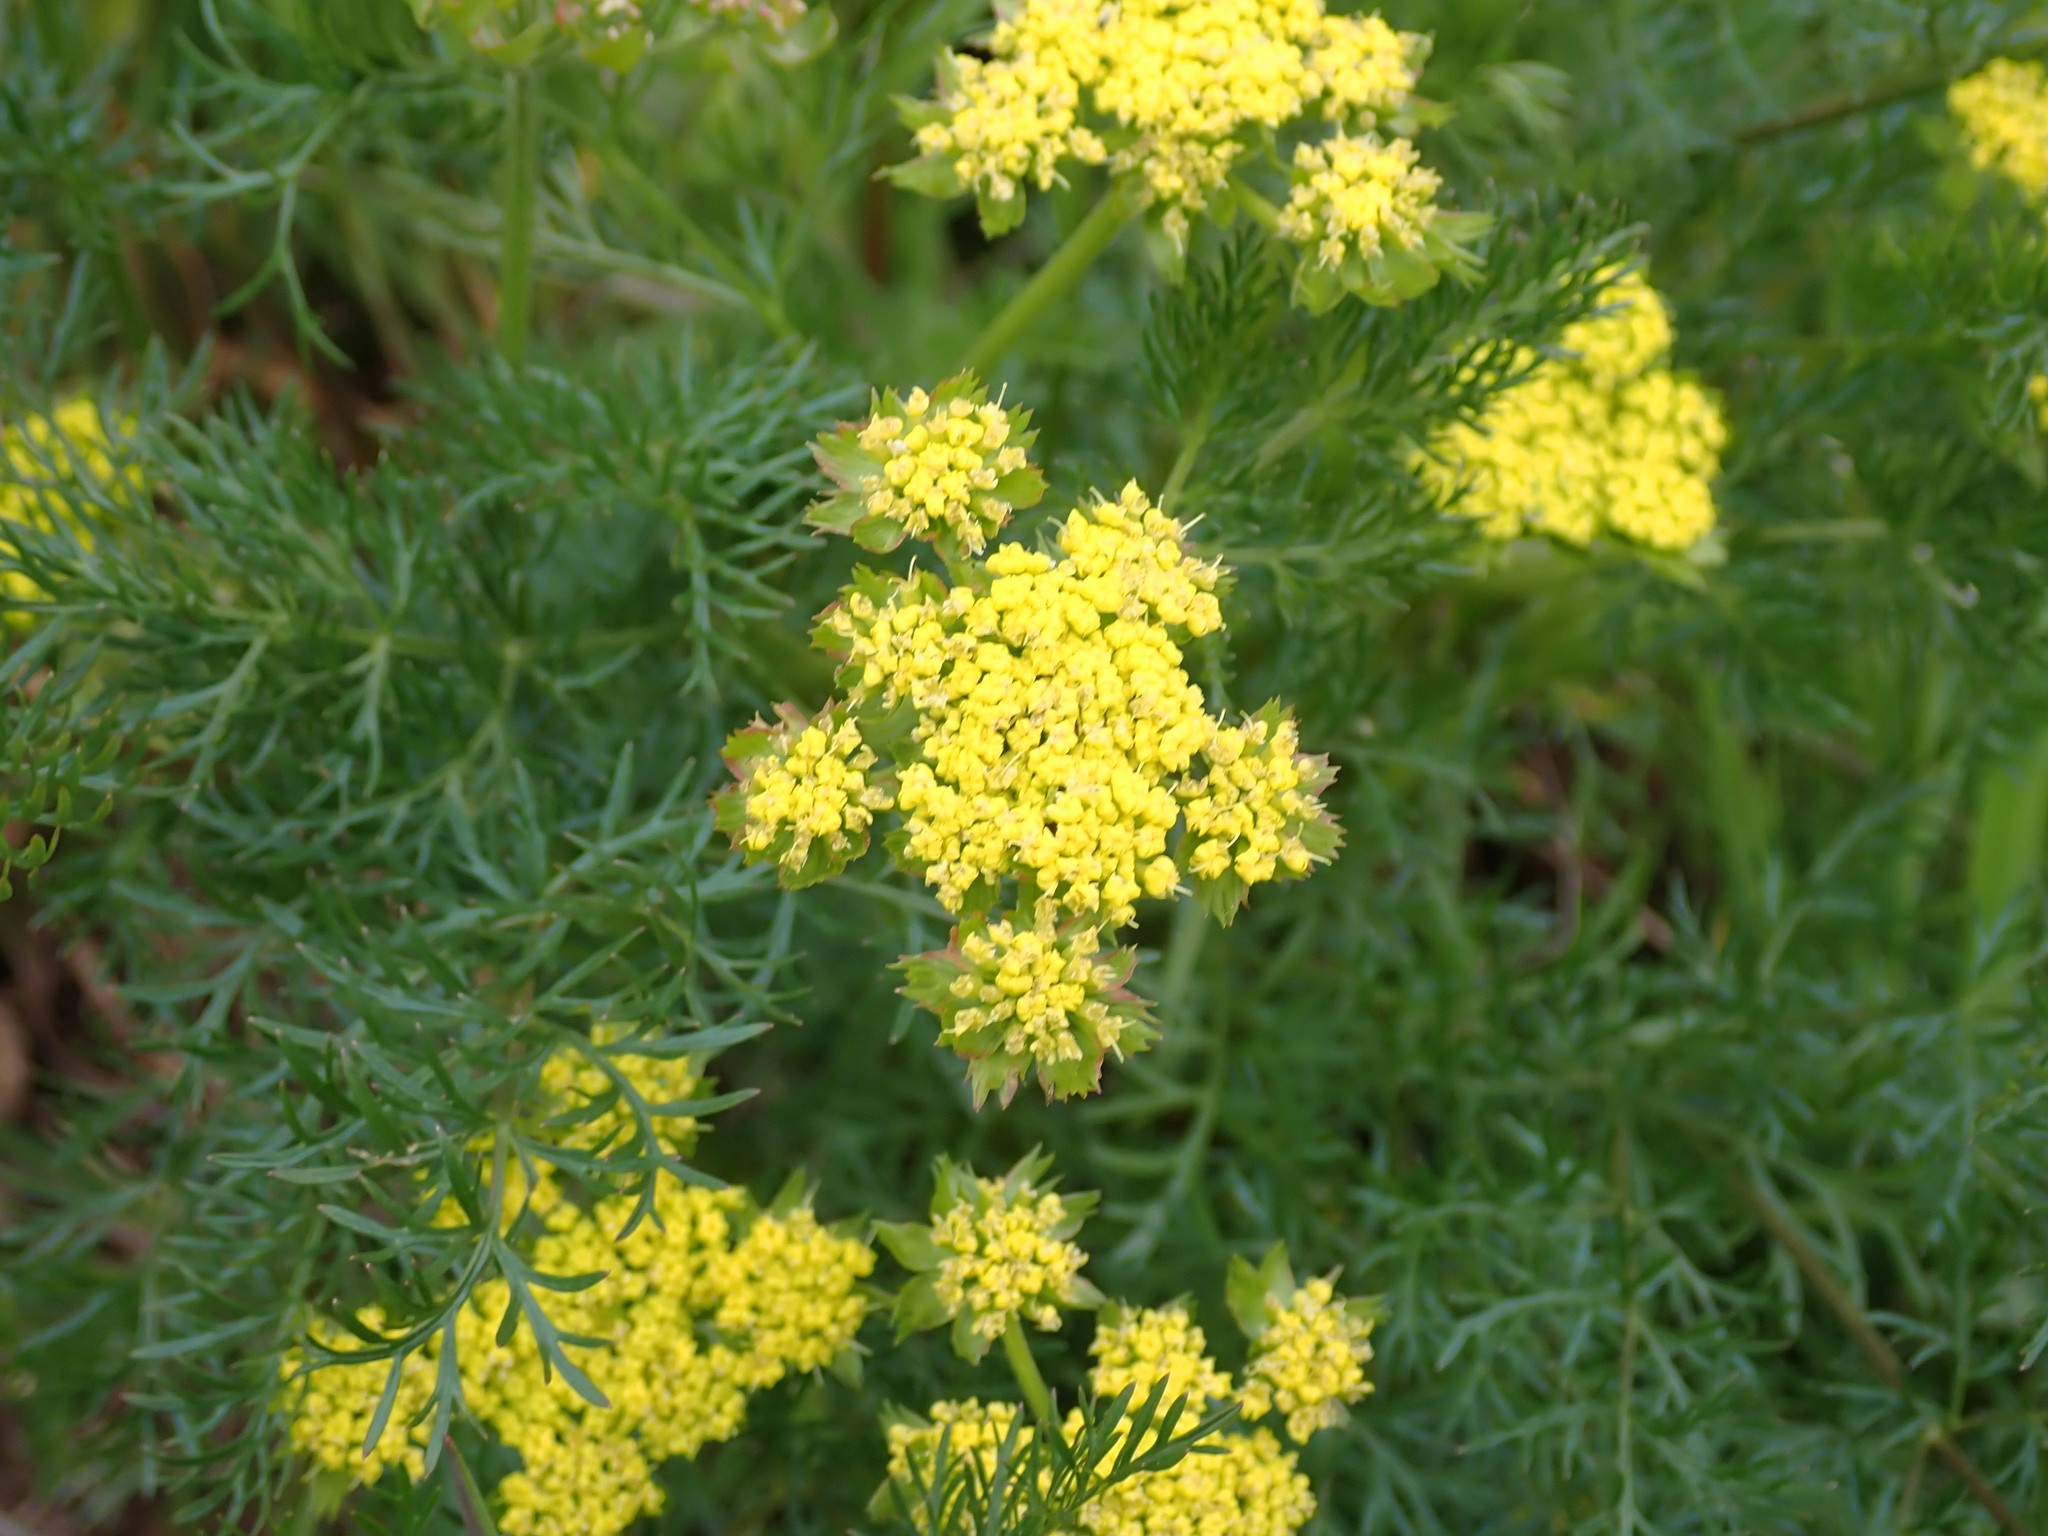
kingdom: Plantae
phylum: Tracheophyta
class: Magnoliopsida
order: Apiales
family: Apiaceae
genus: Lomatium
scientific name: Lomatium utriculatum
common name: Fine-leaf desert-parsley
